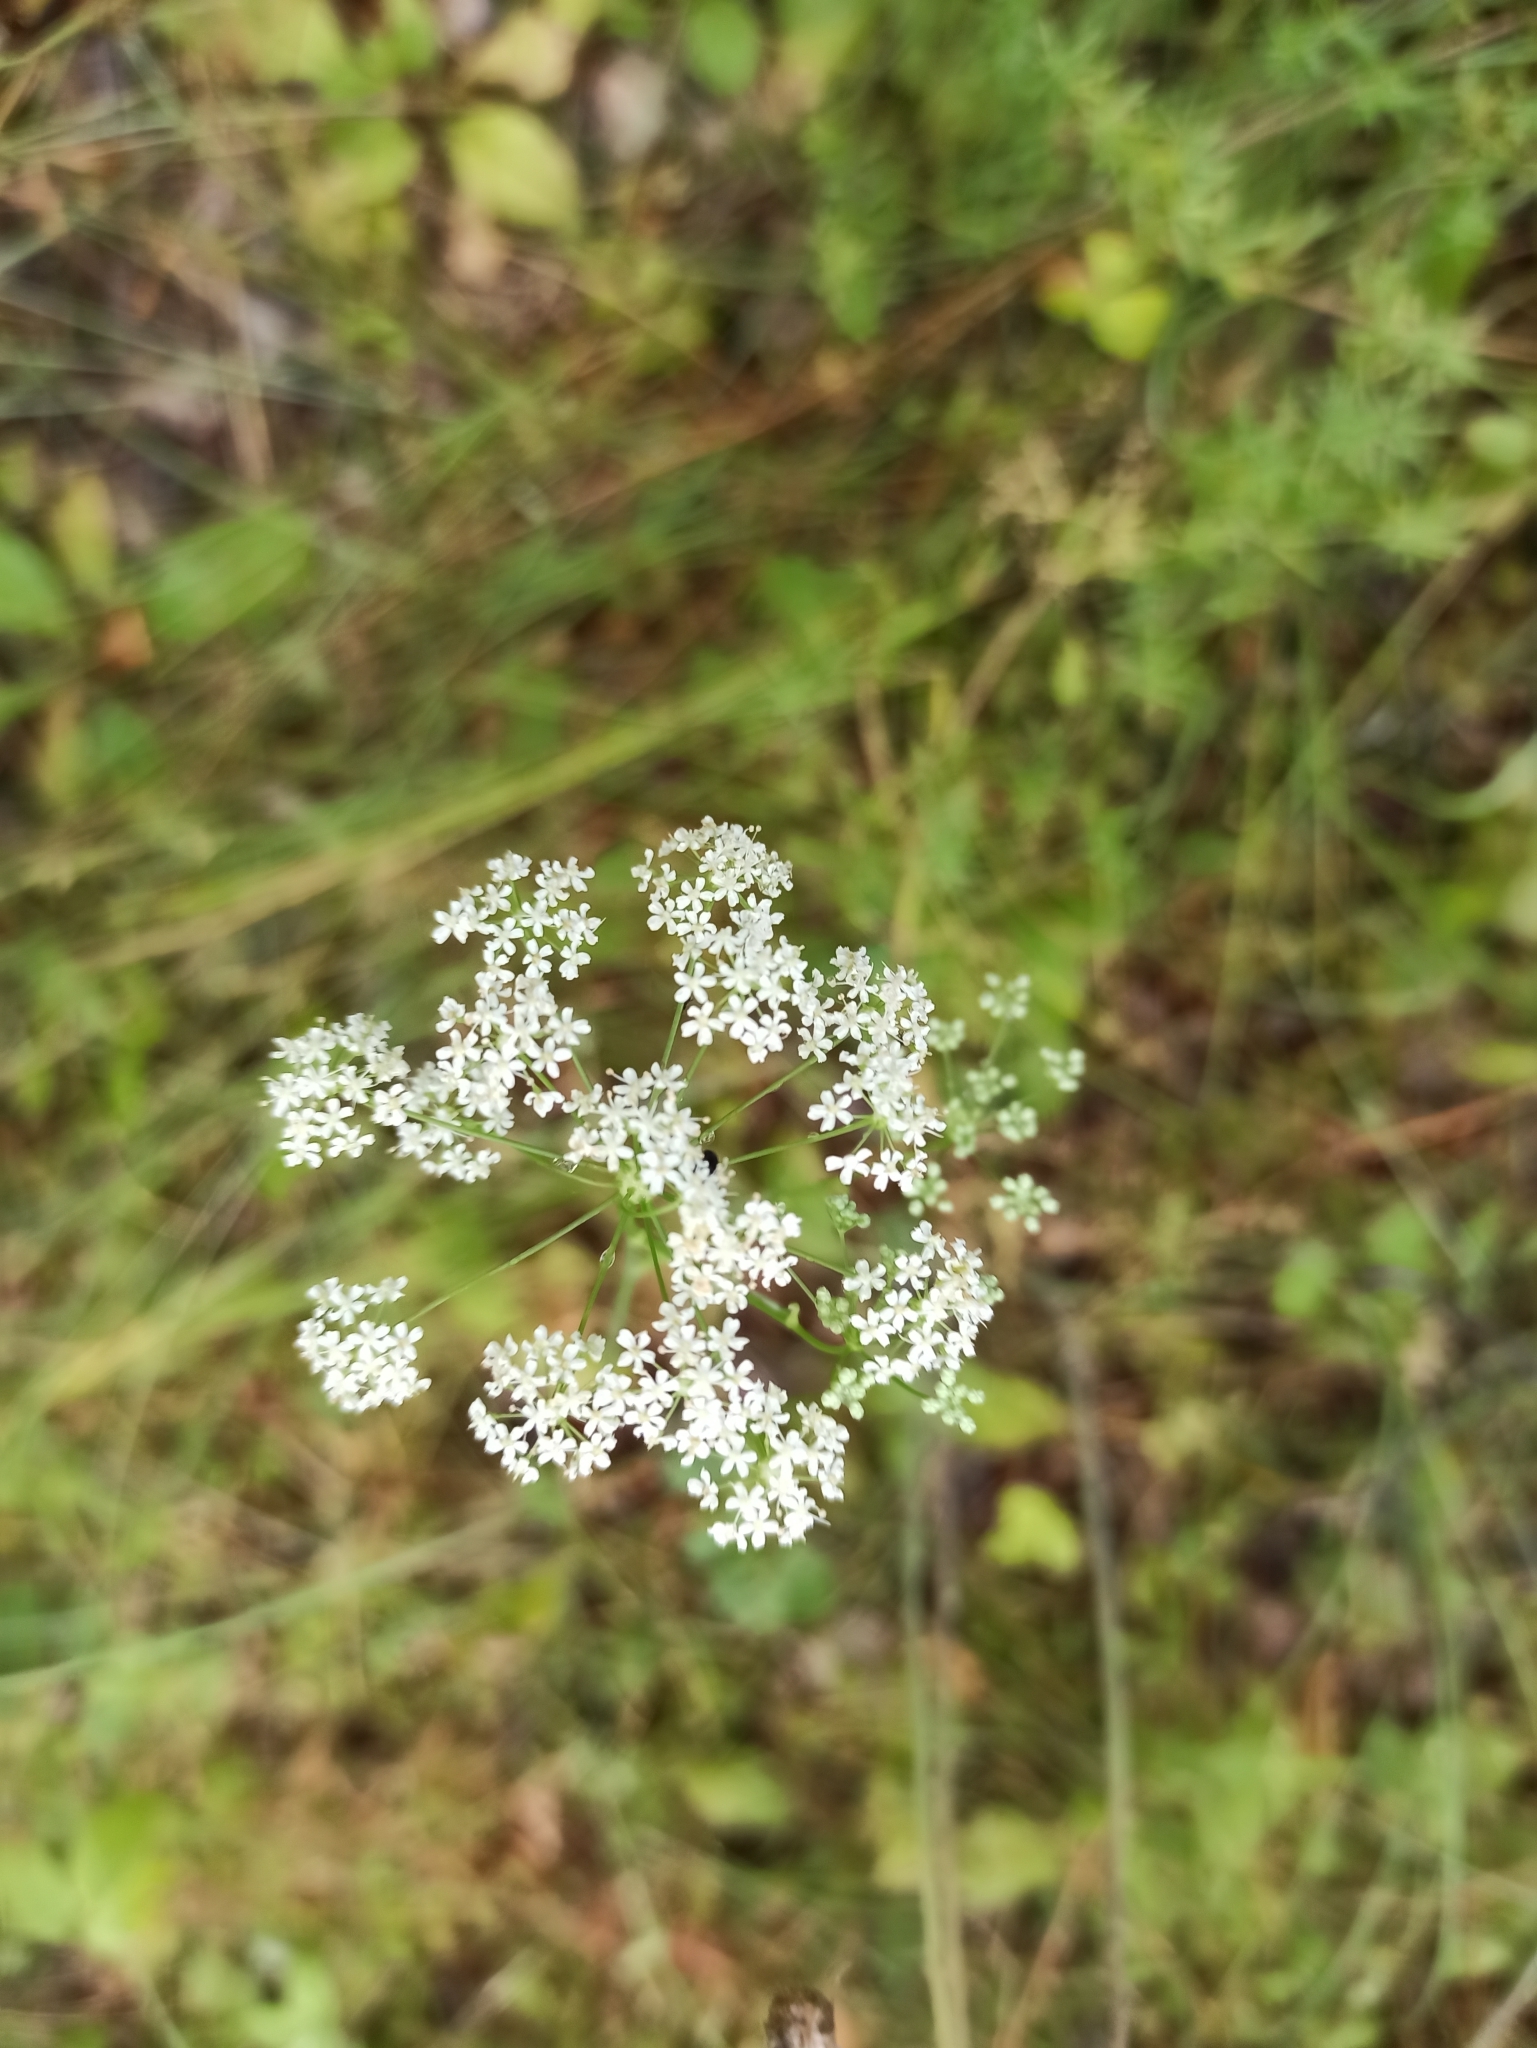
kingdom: Plantae
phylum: Tracheophyta
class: Magnoliopsida
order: Apiales
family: Apiaceae
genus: Pimpinella
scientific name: Pimpinella saxifraga
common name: Burnet-saxifrage
